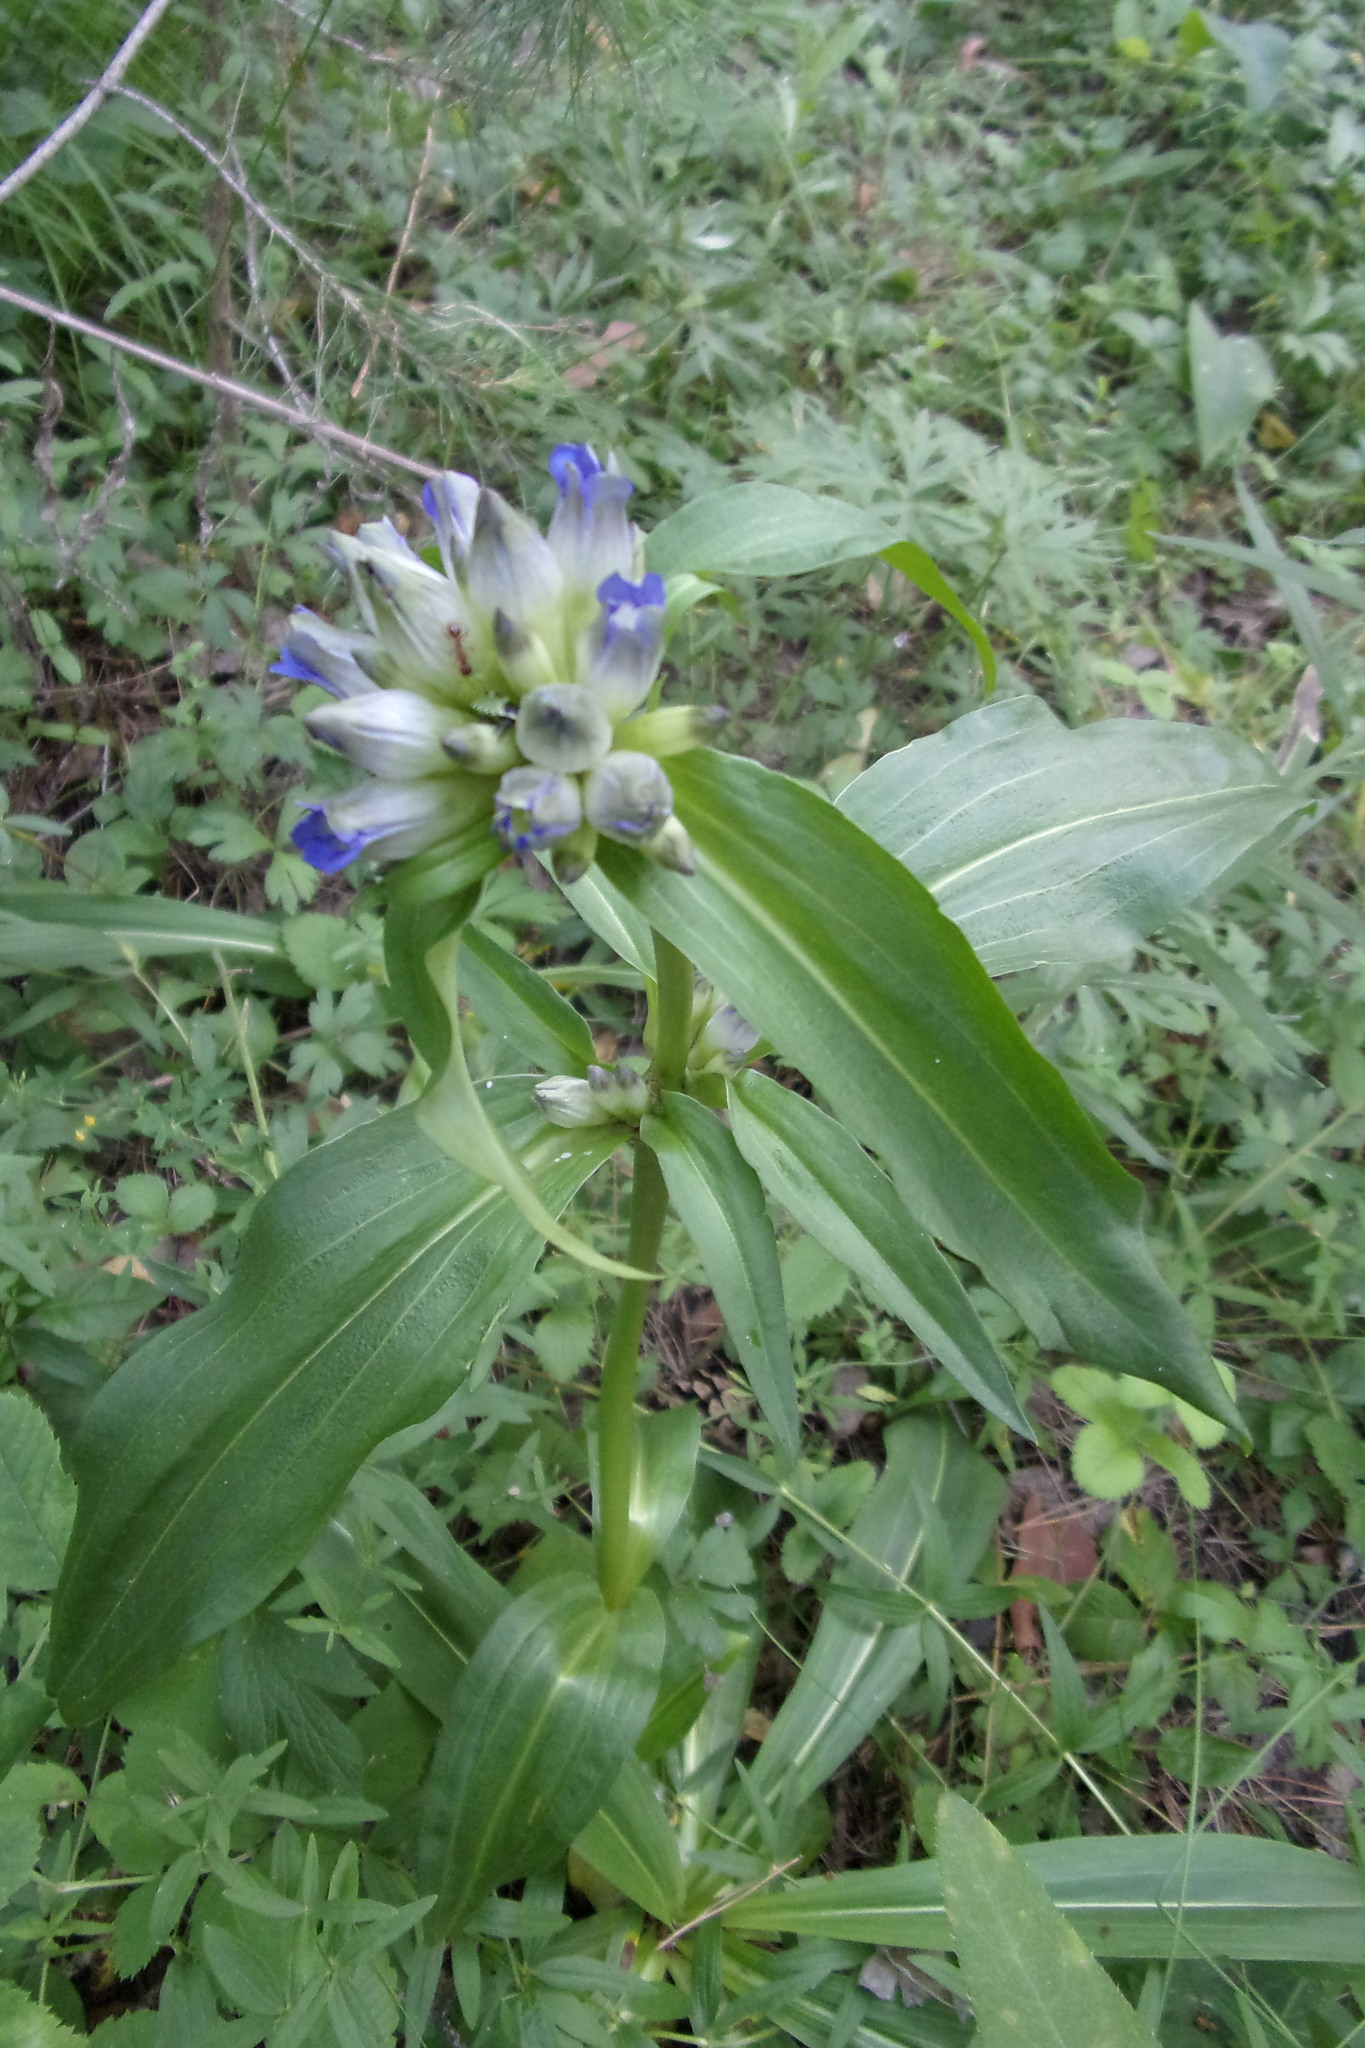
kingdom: Plantae
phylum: Tracheophyta
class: Magnoliopsida
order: Gentianales
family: Gentianaceae
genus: Gentiana
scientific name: Gentiana macrophylla
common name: Large-leaf gentian
